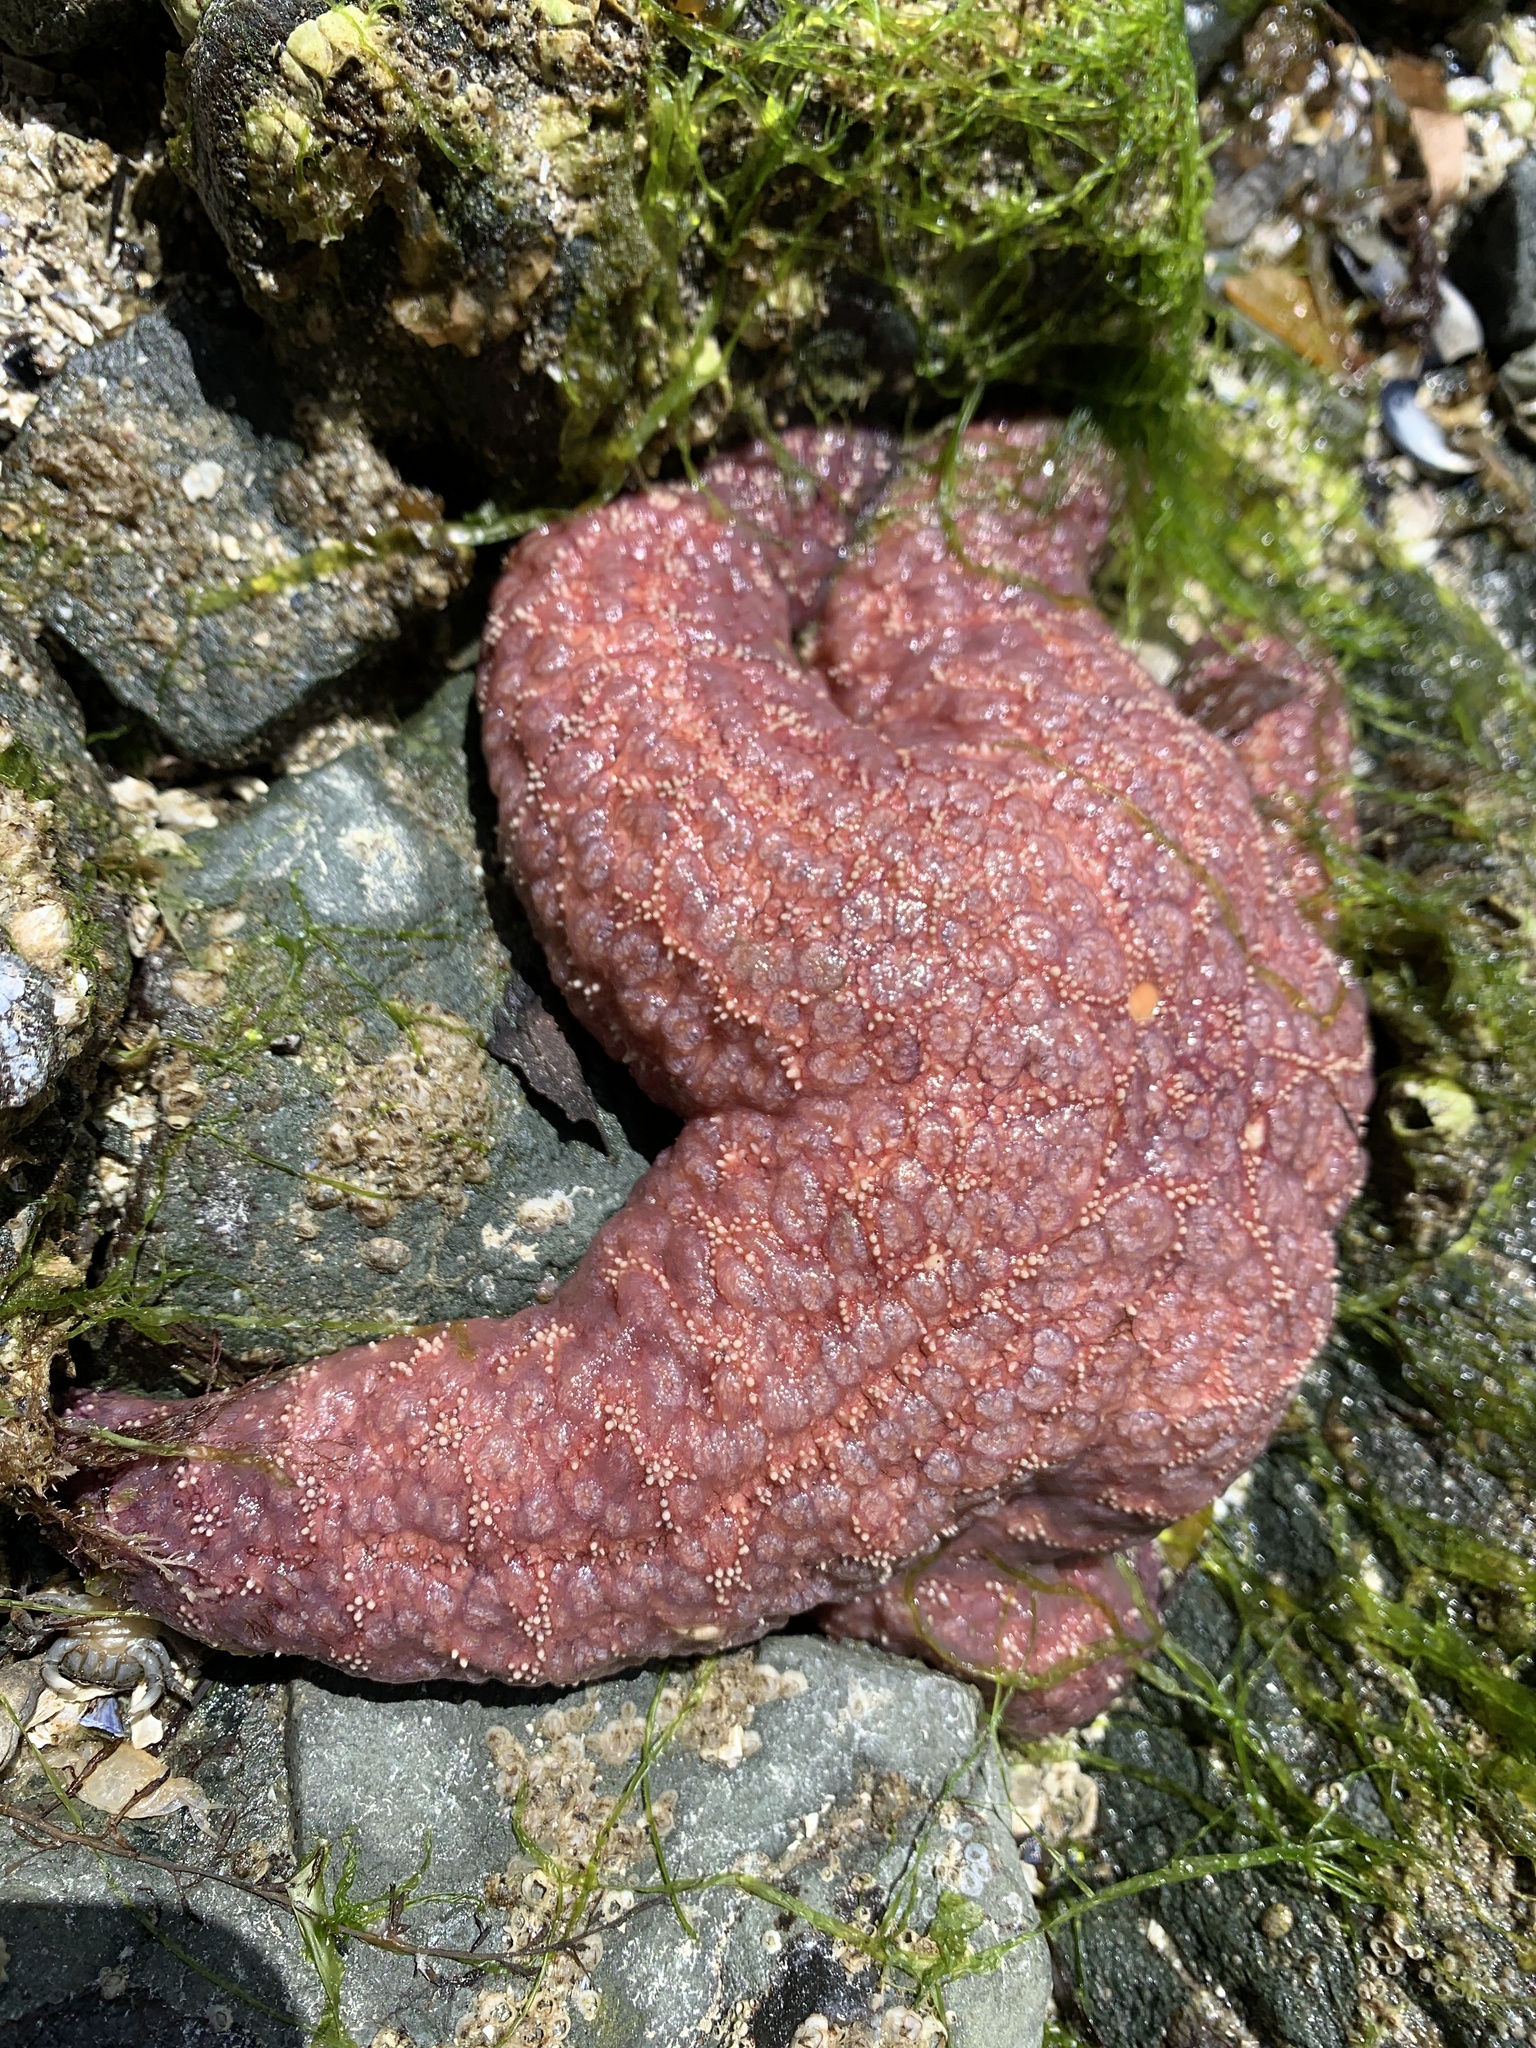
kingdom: Animalia
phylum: Echinodermata
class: Asteroidea
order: Forcipulatida
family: Asteriidae
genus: Pisaster
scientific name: Pisaster ochraceus
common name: Ochre stars
